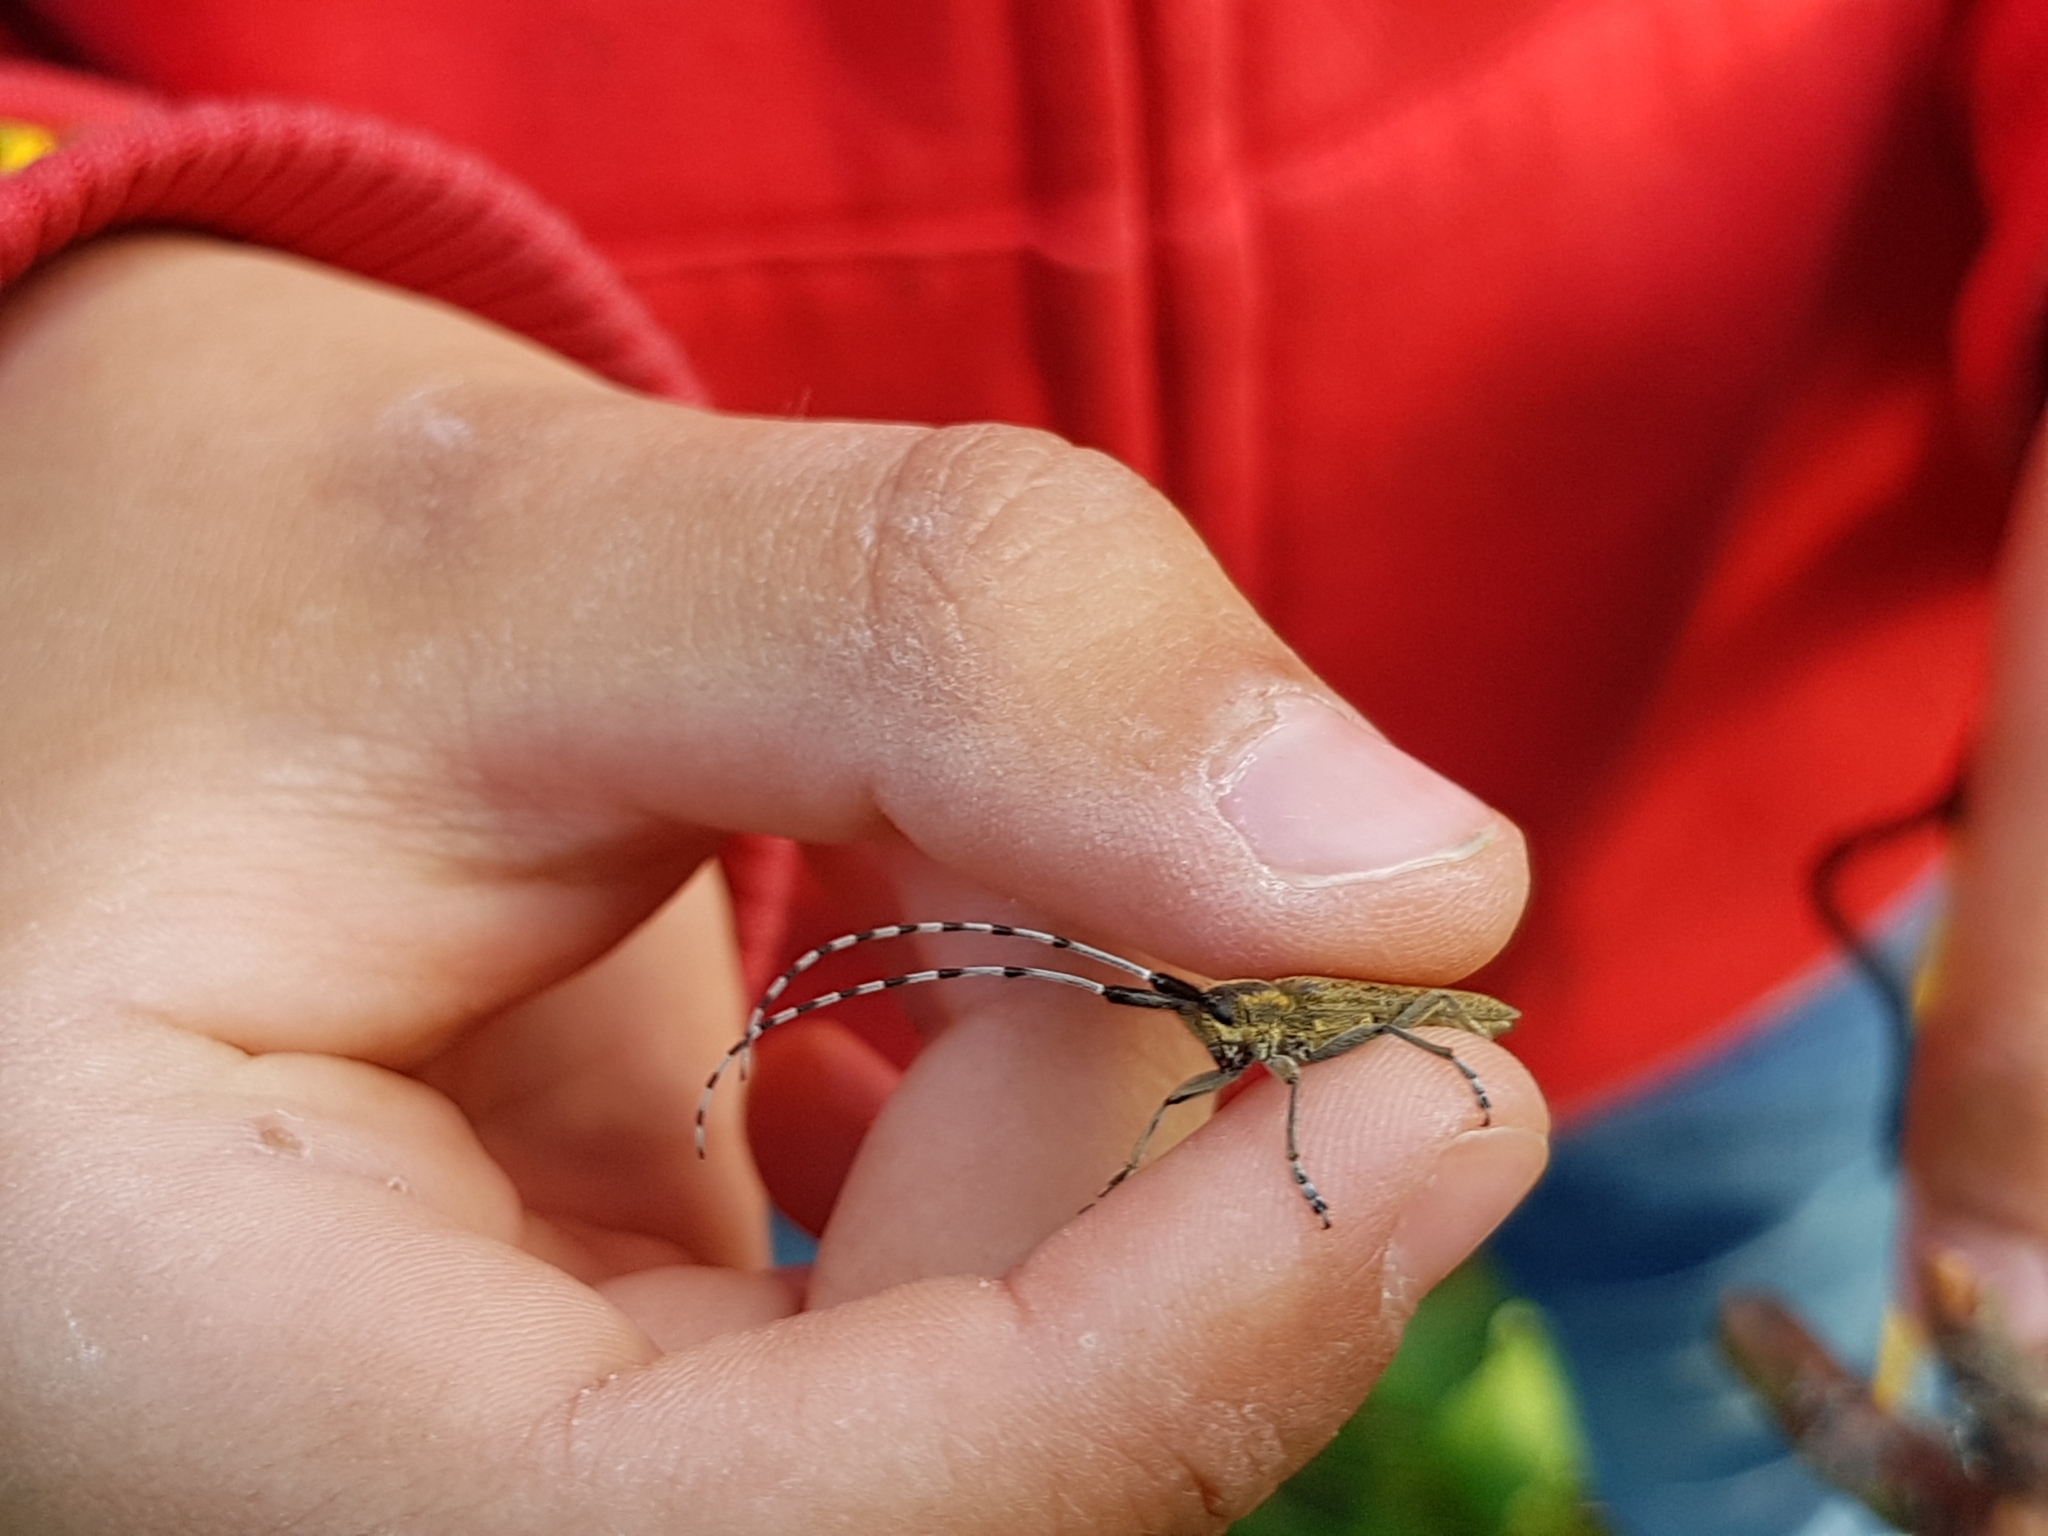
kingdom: Animalia
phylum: Arthropoda
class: Insecta
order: Coleoptera
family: Cerambycidae
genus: Agapanthia
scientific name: Agapanthia villosoviridescens
